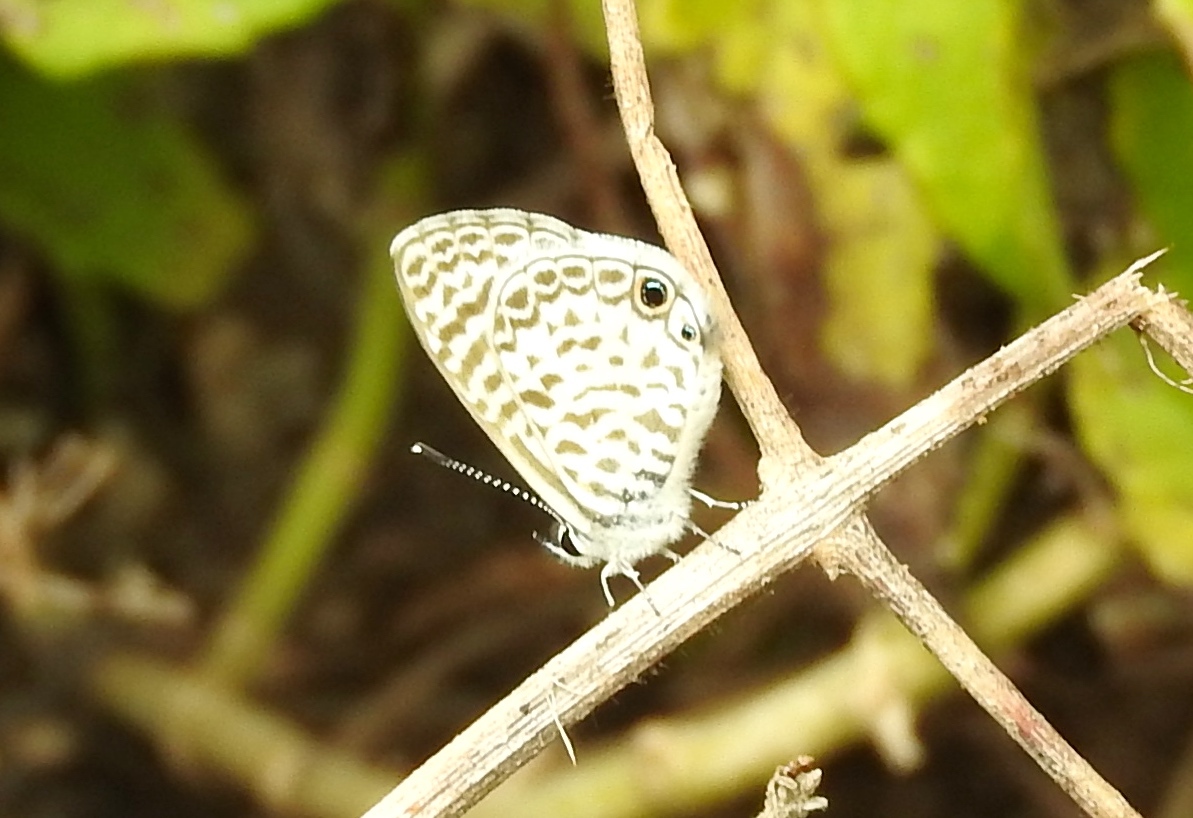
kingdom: Animalia
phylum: Arthropoda
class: Insecta
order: Lepidoptera
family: Lycaenidae
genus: Leptotes
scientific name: Leptotes marina
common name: Marine blue
